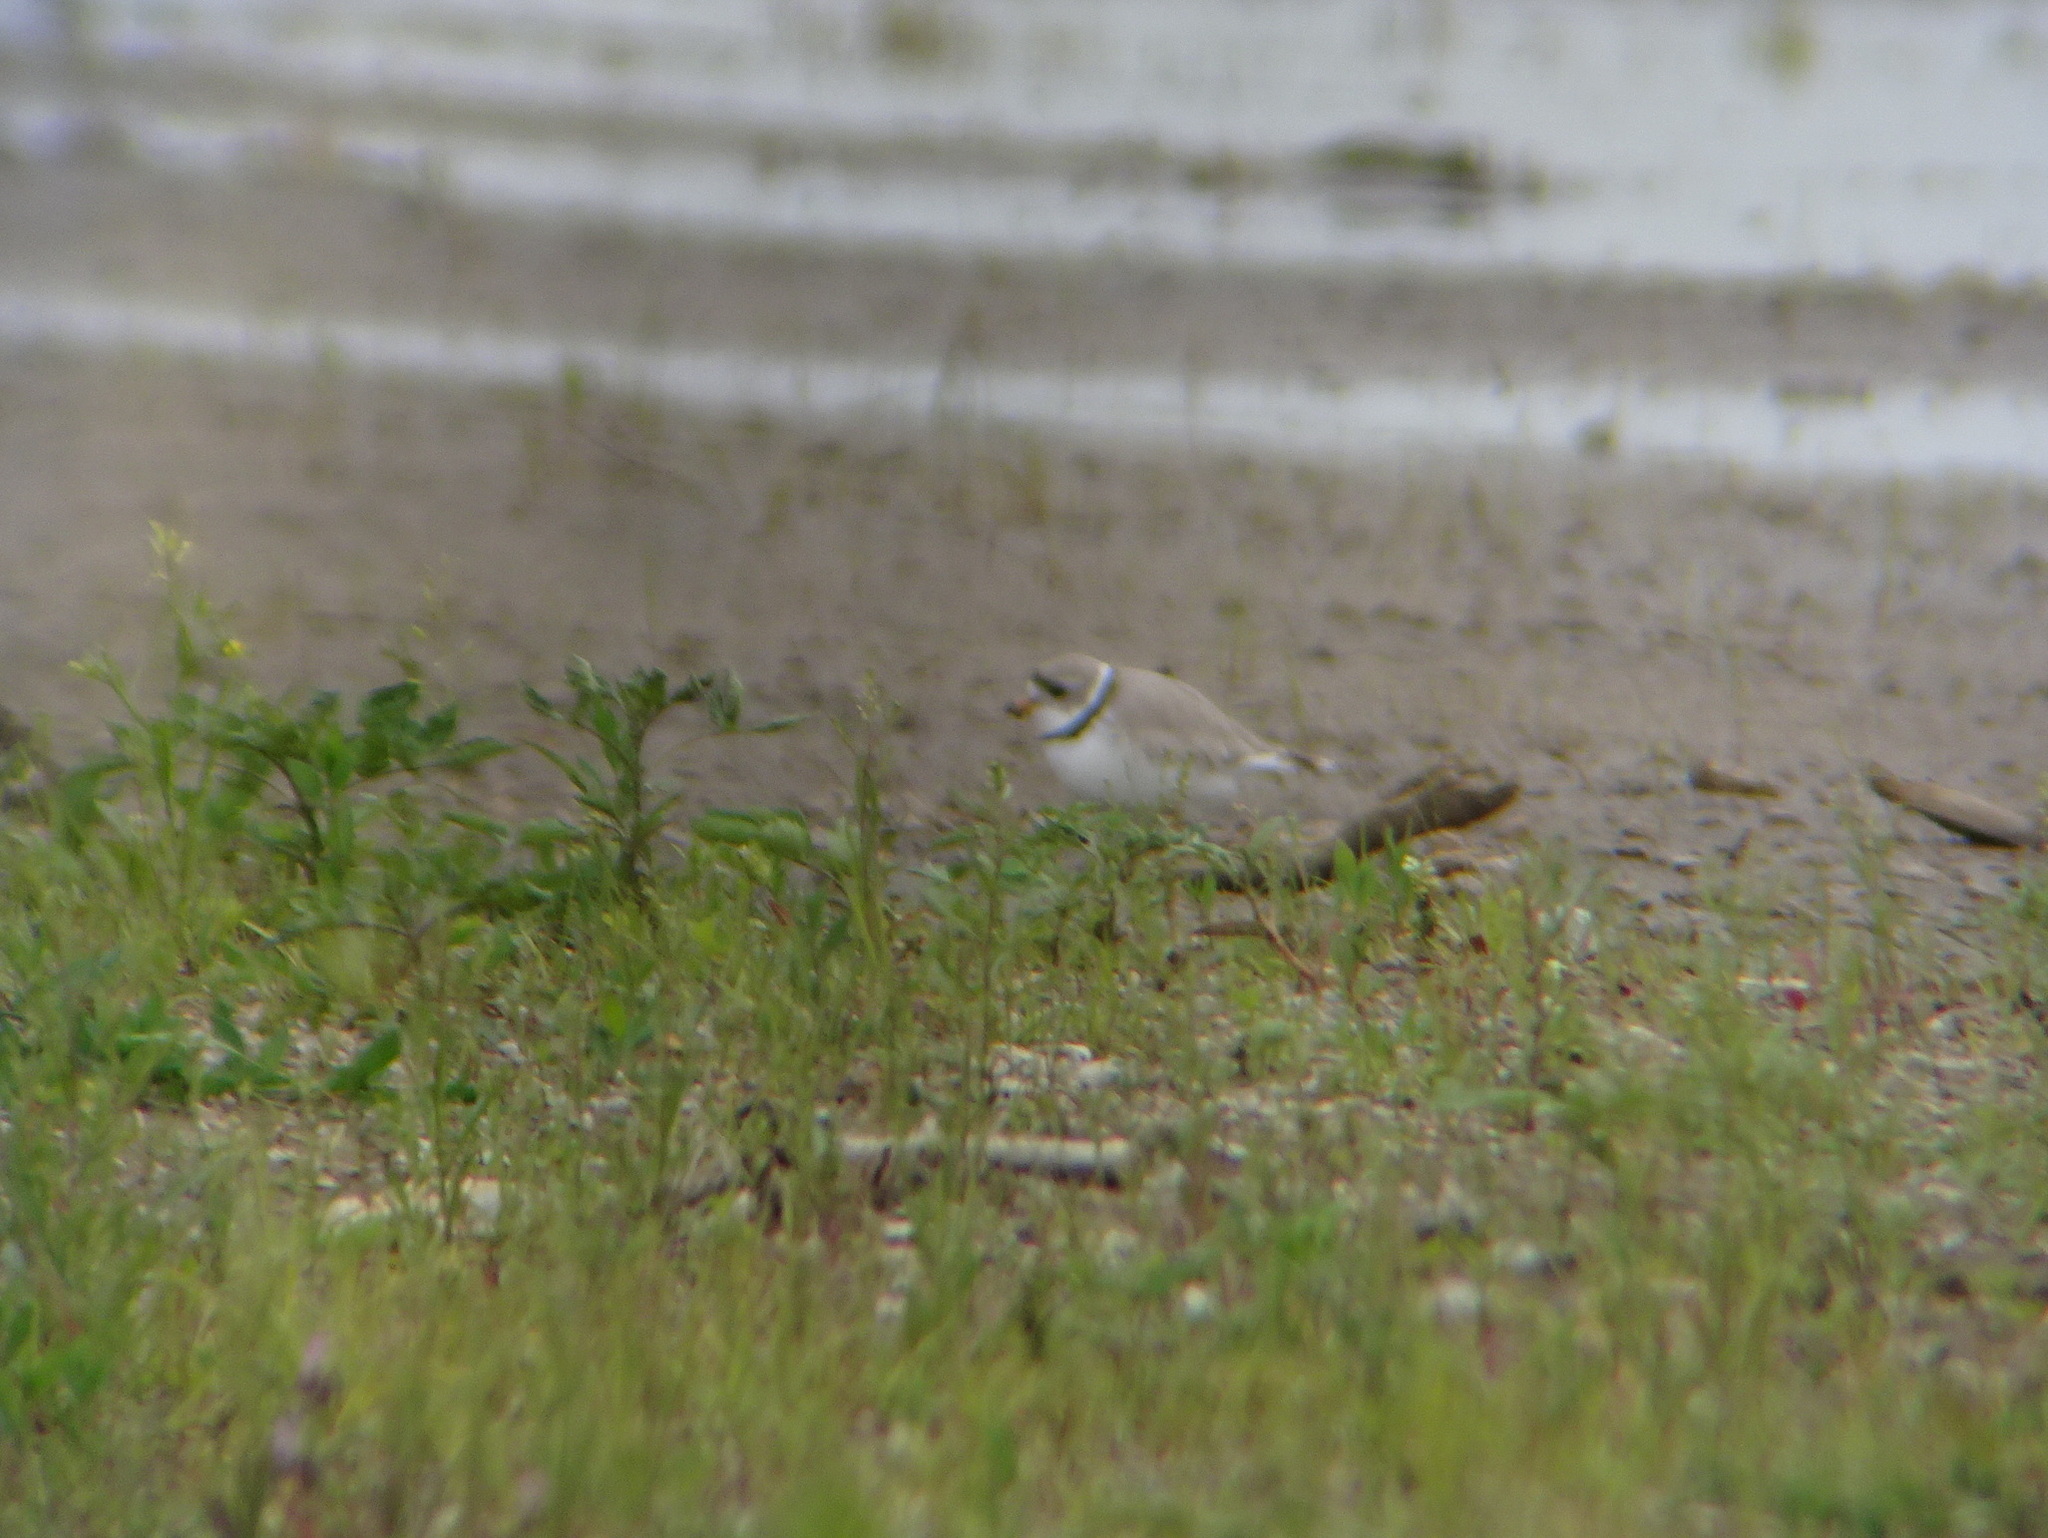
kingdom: Animalia
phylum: Chordata
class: Aves
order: Charadriiformes
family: Charadriidae
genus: Charadrius
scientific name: Charadrius melodus
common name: Piping plover
